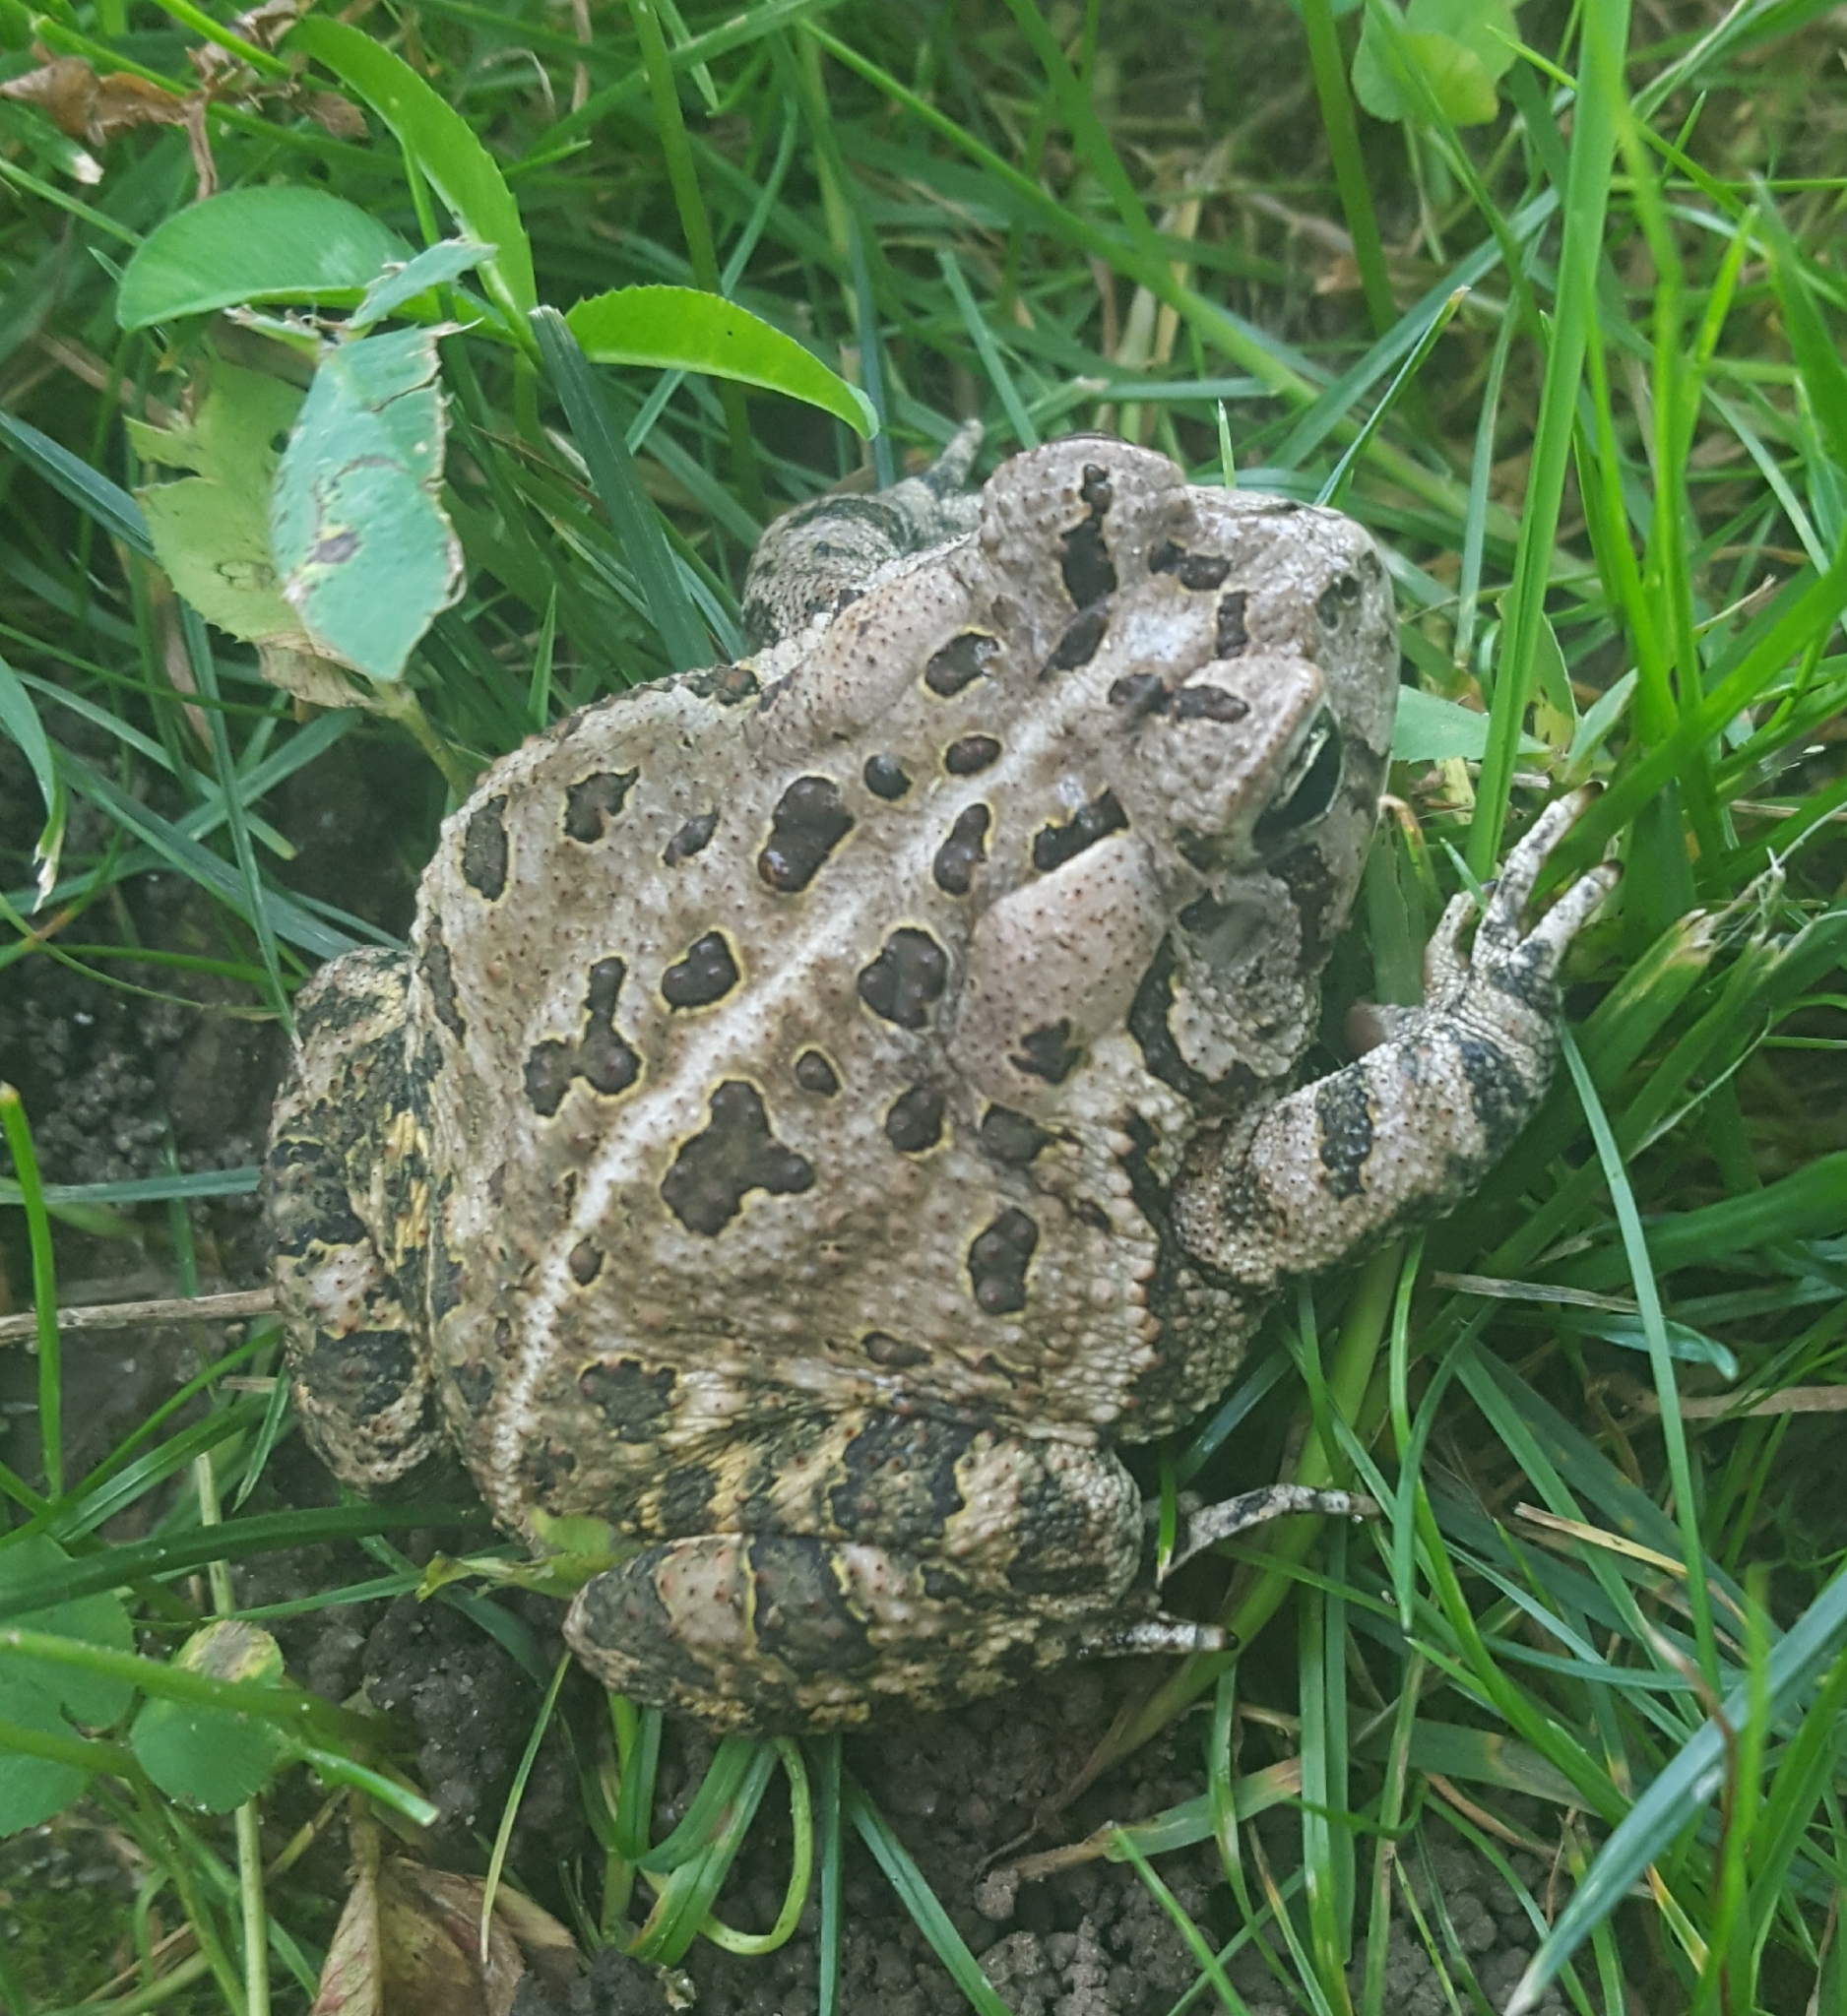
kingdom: Animalia
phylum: Chordata
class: Amphibia
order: Anura
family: Bufonidae
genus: Anaxyrus
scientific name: Anaxyrus fowleri
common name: Fowler's toad
